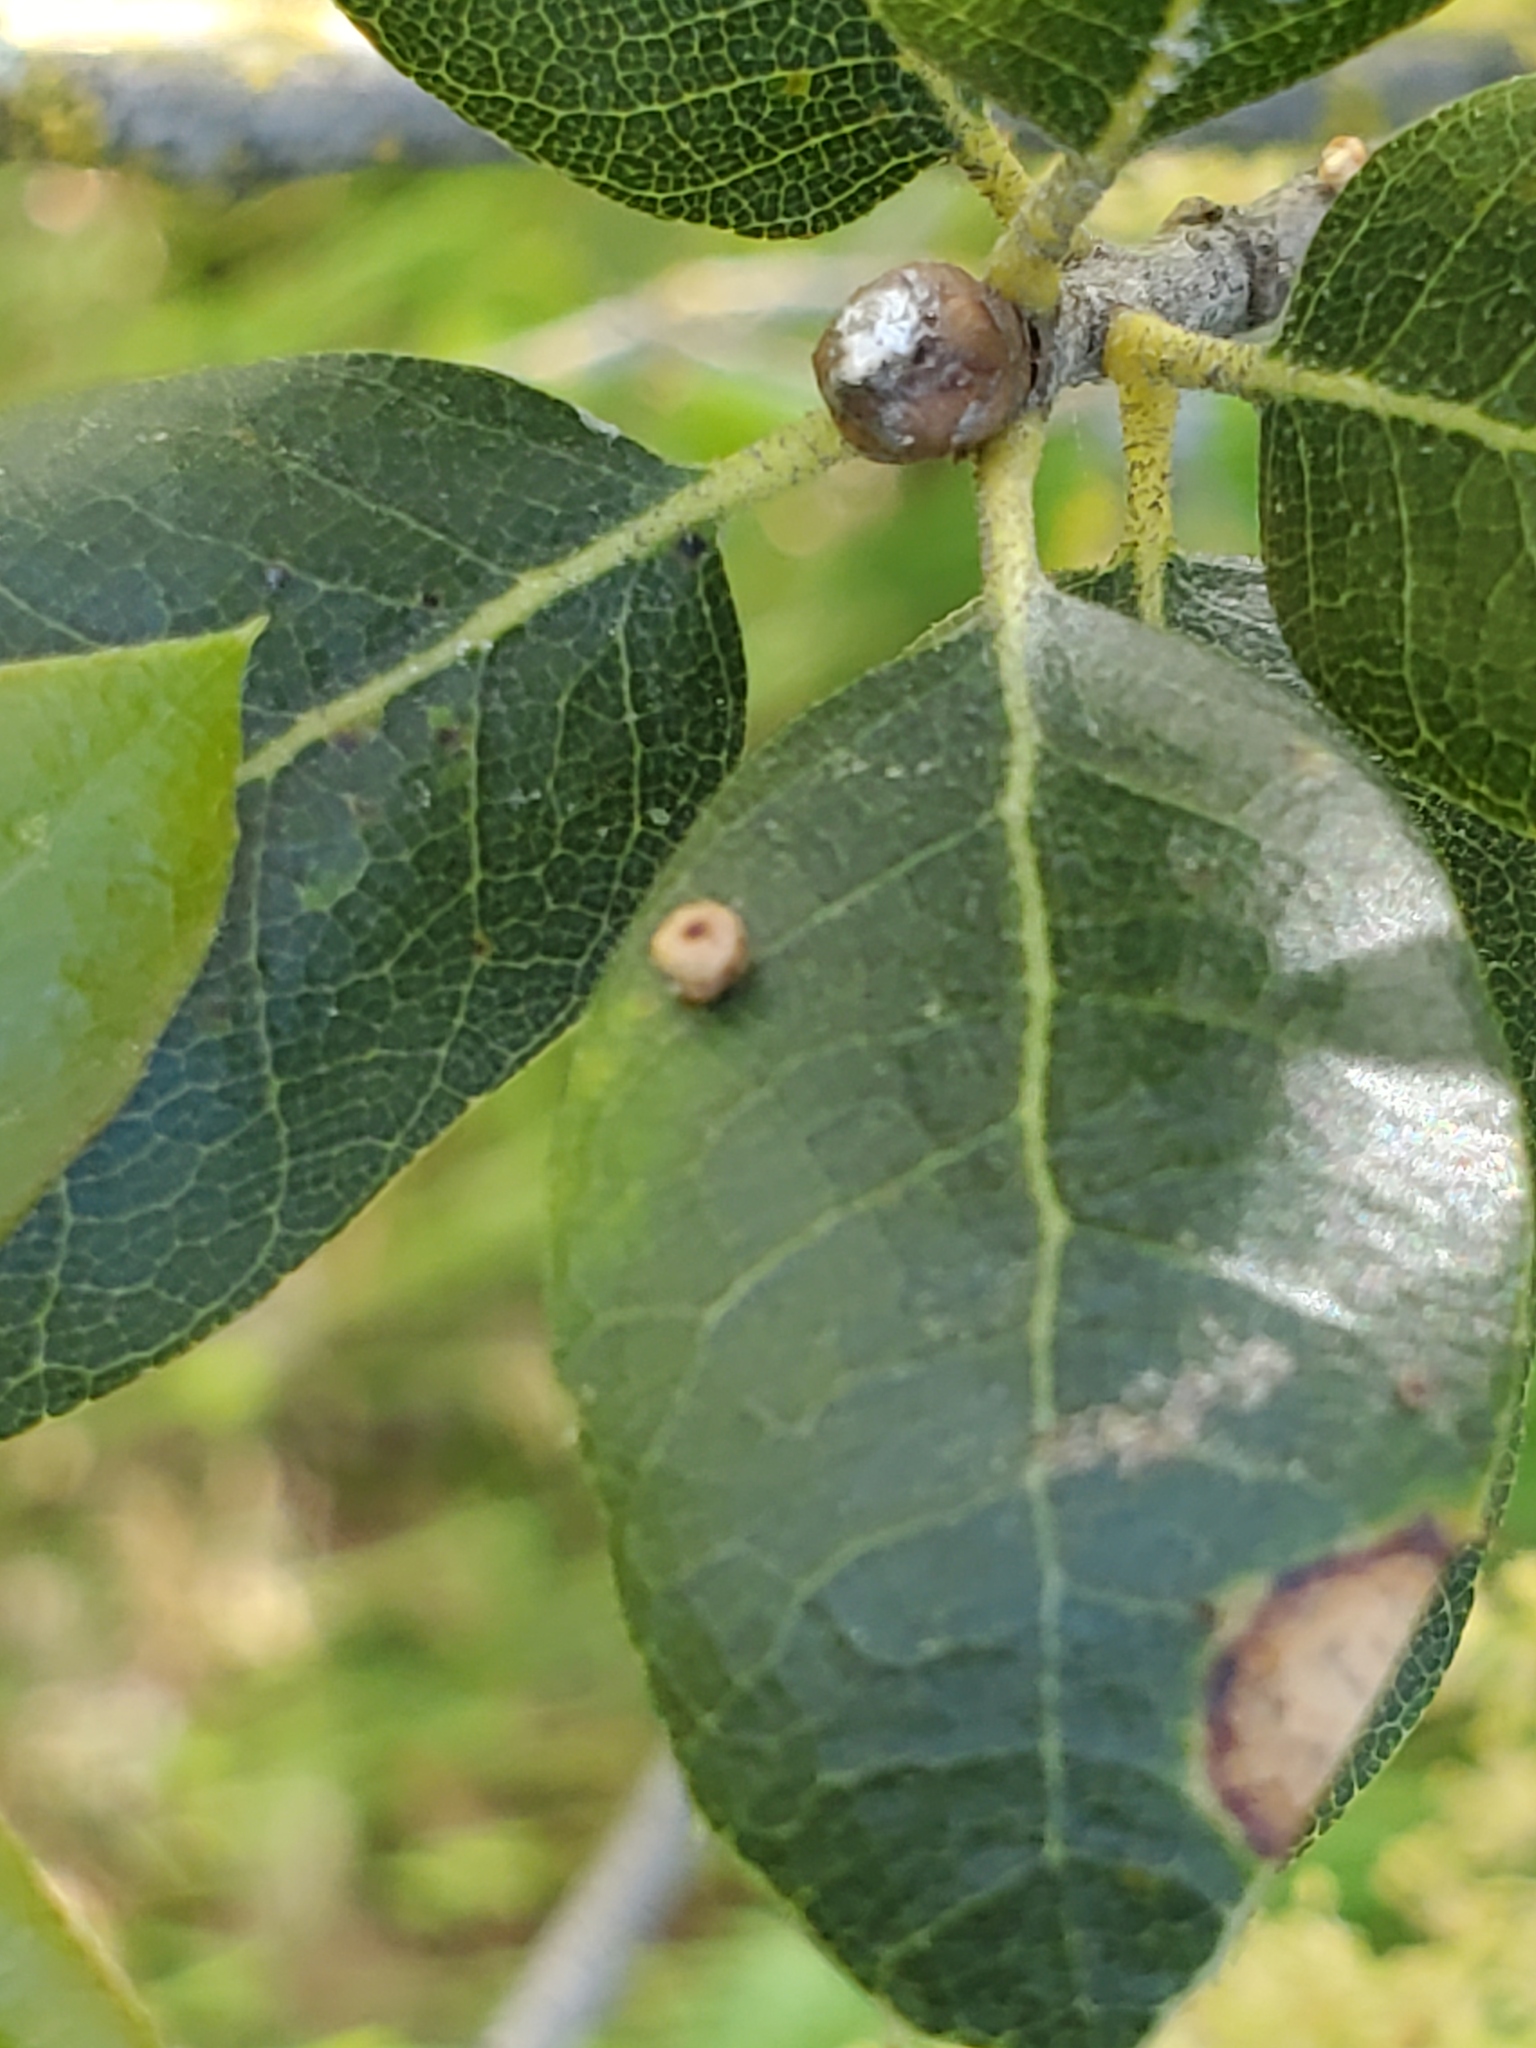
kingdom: Animalia
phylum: Arthropoda
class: Insecta
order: Hymenoptera
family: Cynipidae
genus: Dryocosmus
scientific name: Dryocosmus
